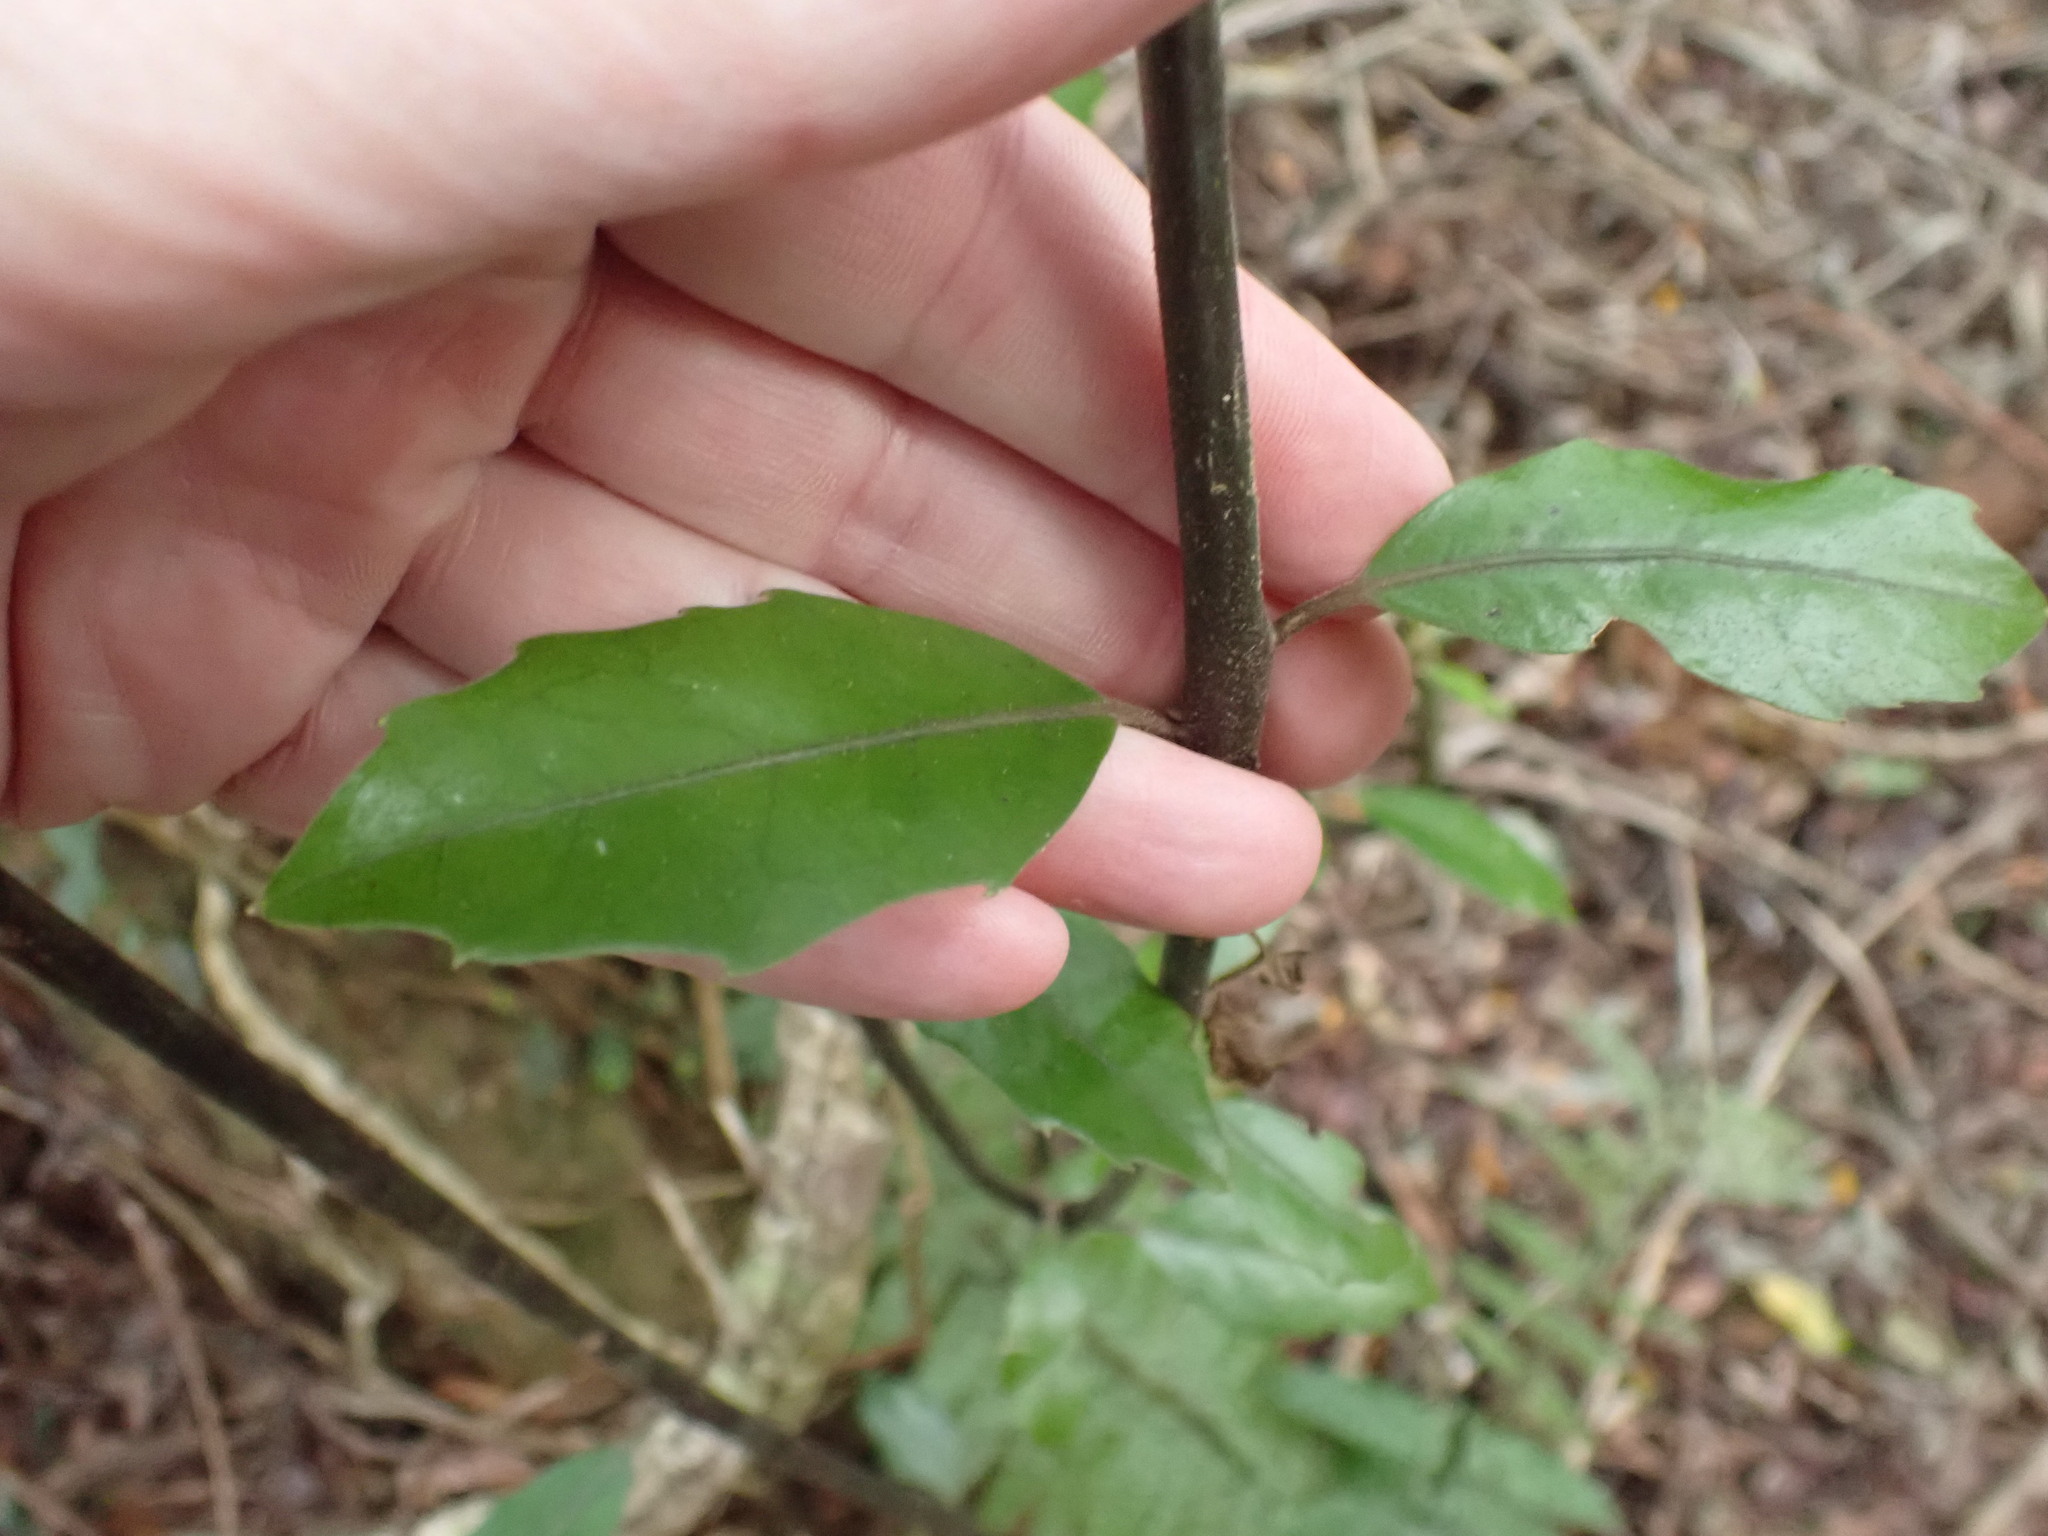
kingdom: Plantae
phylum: Tracheophyta
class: Magnoliopsida
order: Laurales
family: Monimiaceae
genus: Hedycarya
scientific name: Hedycarya arborea
